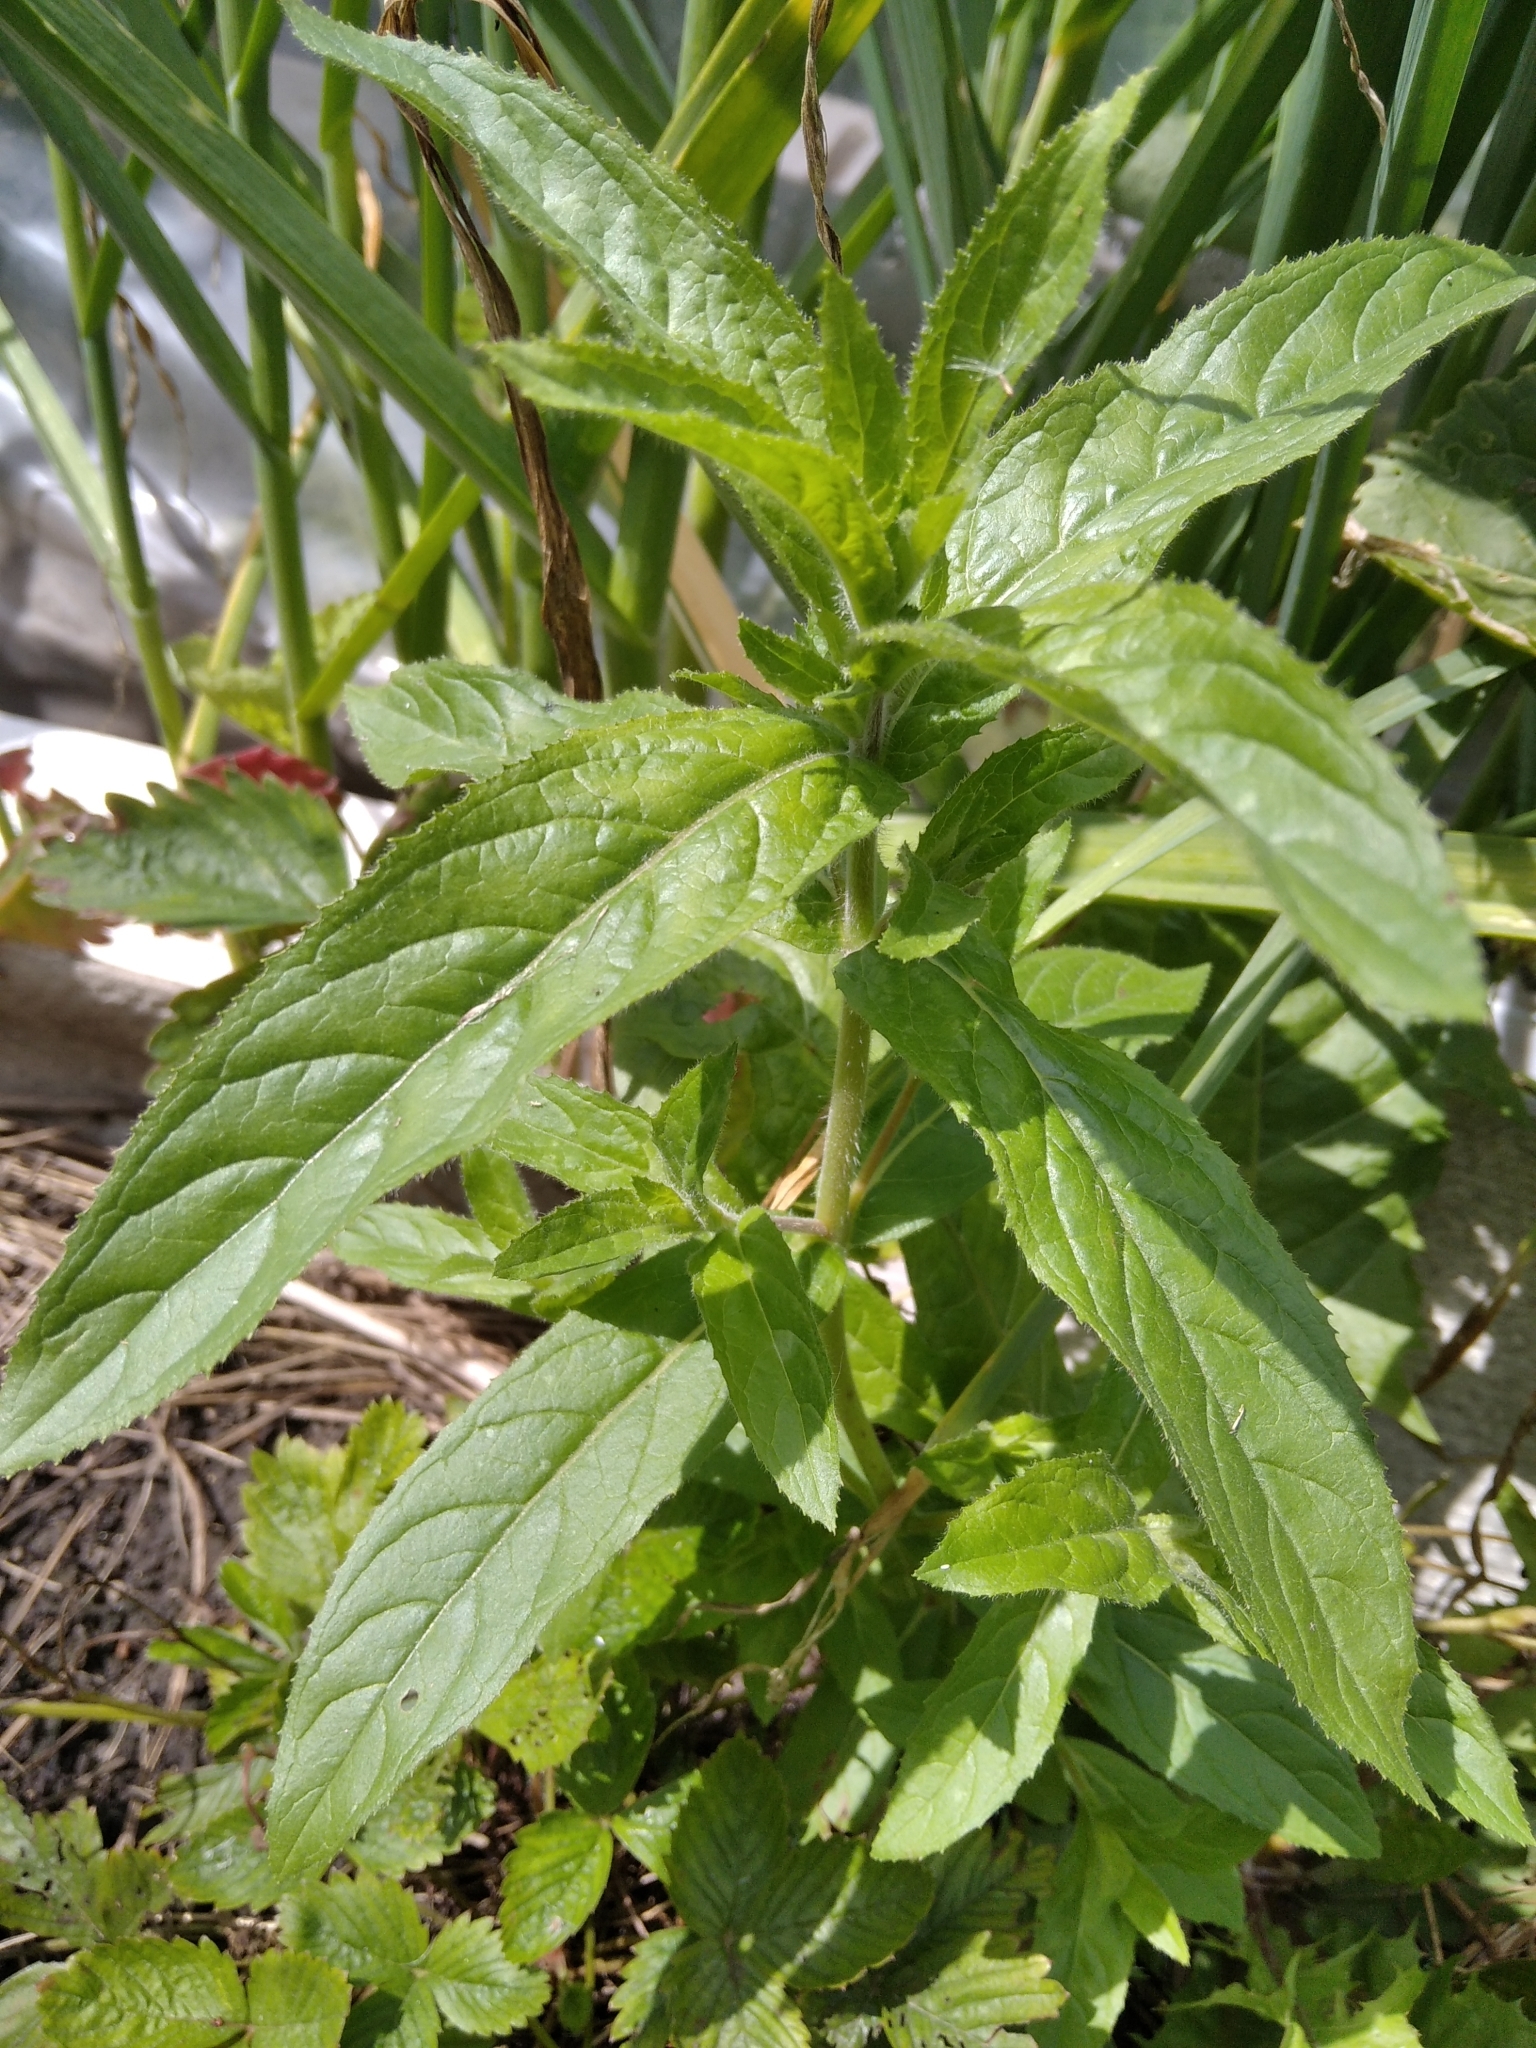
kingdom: Plantae
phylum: Tracheophyta
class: Magnoliopsida
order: Myrtales
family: Onagraceae
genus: Epilobium
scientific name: Epilobium ciliatum
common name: American willowherb
